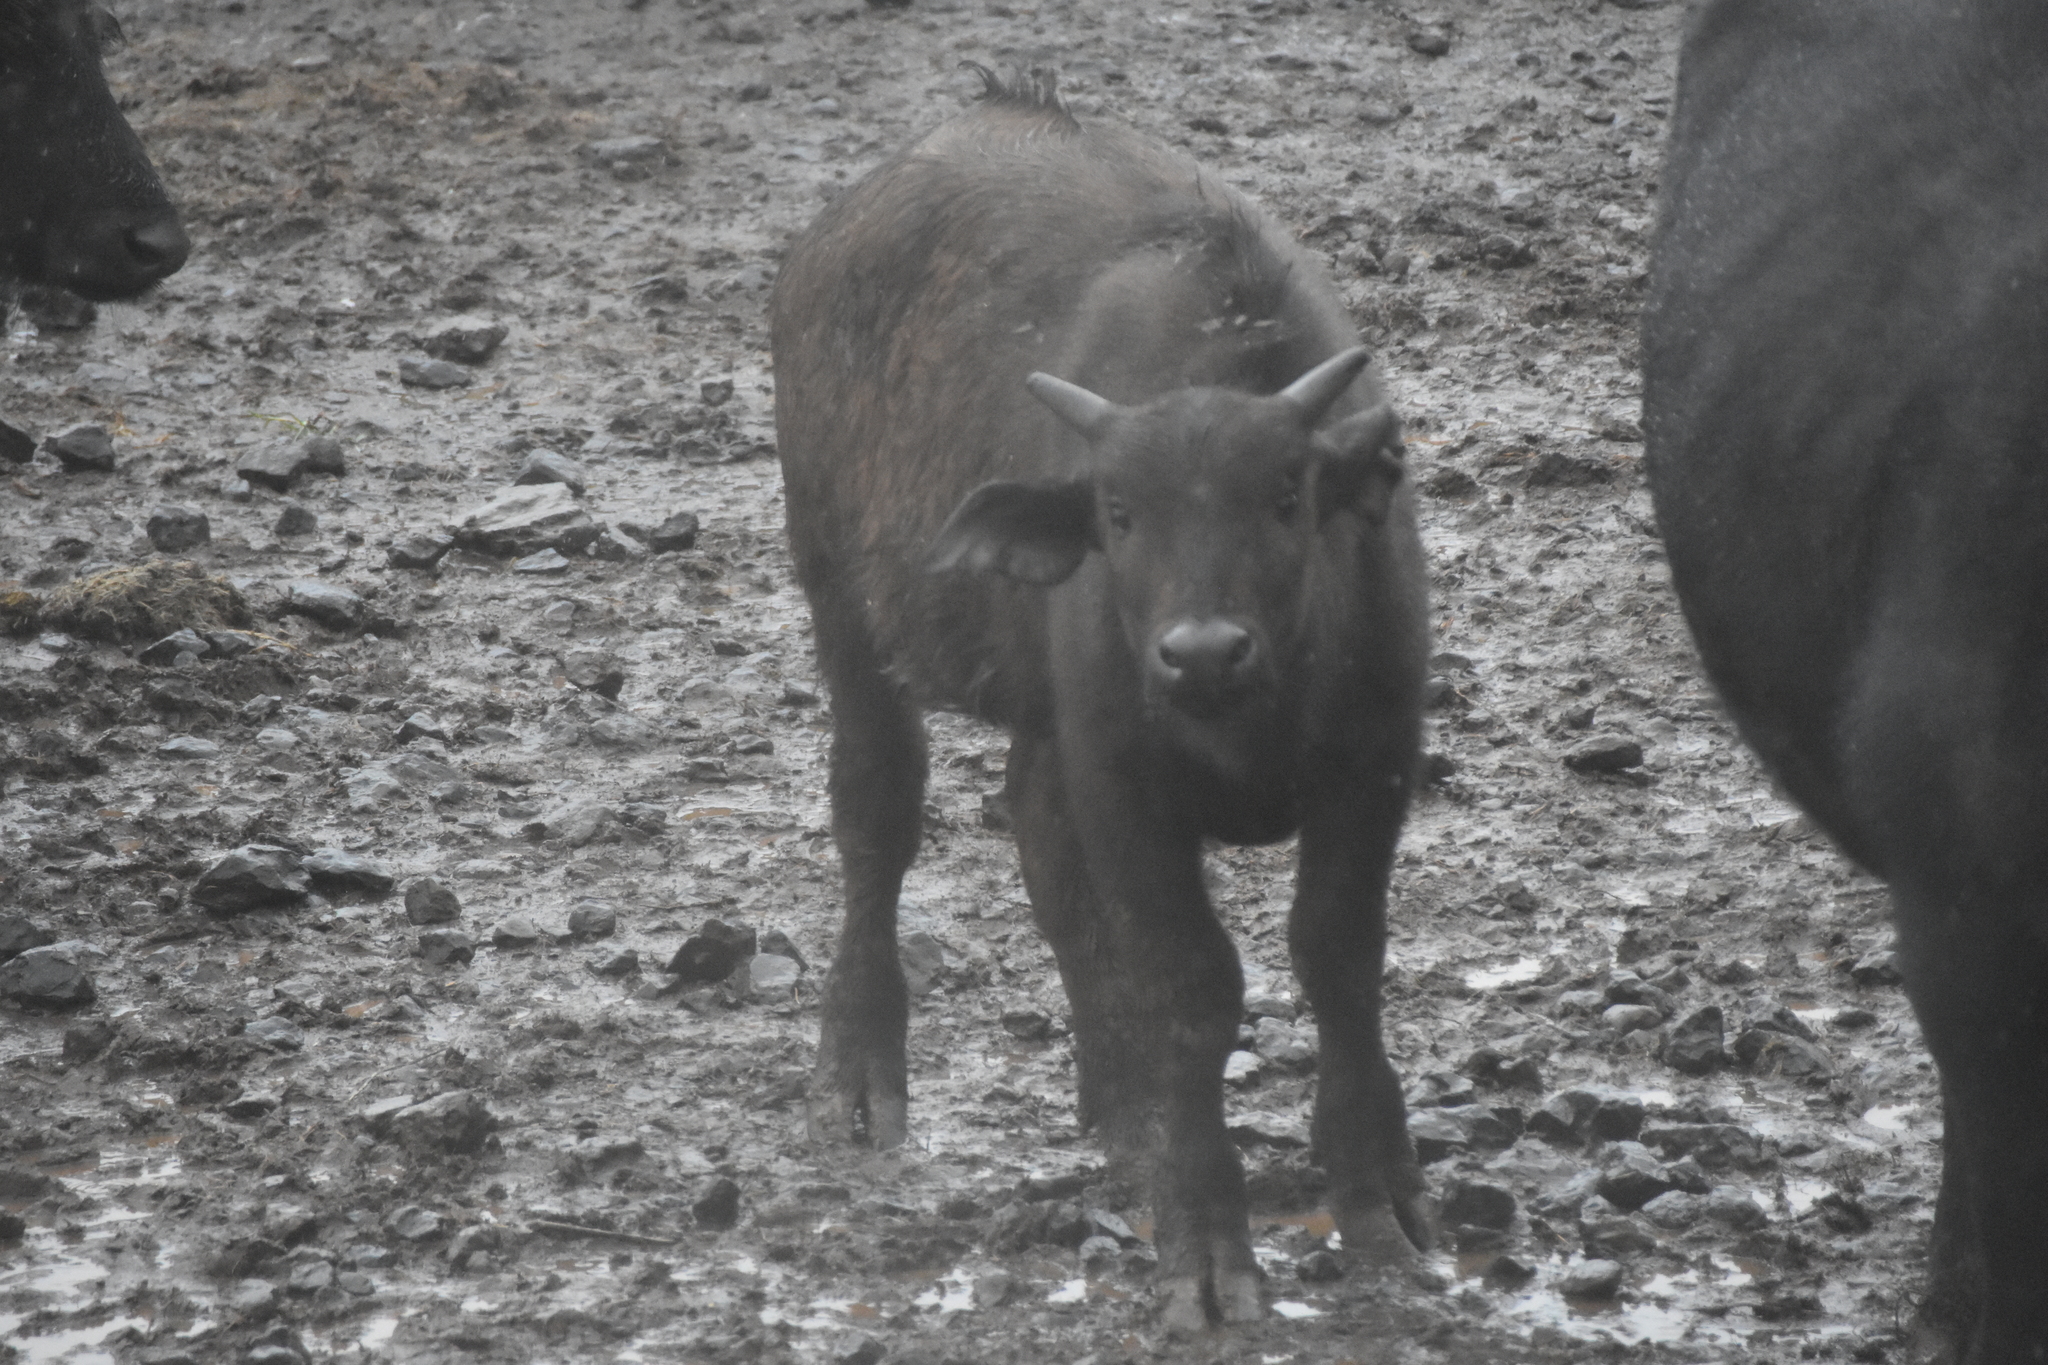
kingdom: Animalia
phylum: Chordata
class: Mammalia
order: Artiodactyla
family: Bovidae
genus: Syncerus
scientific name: Syncerus caffer
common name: African buffalo
